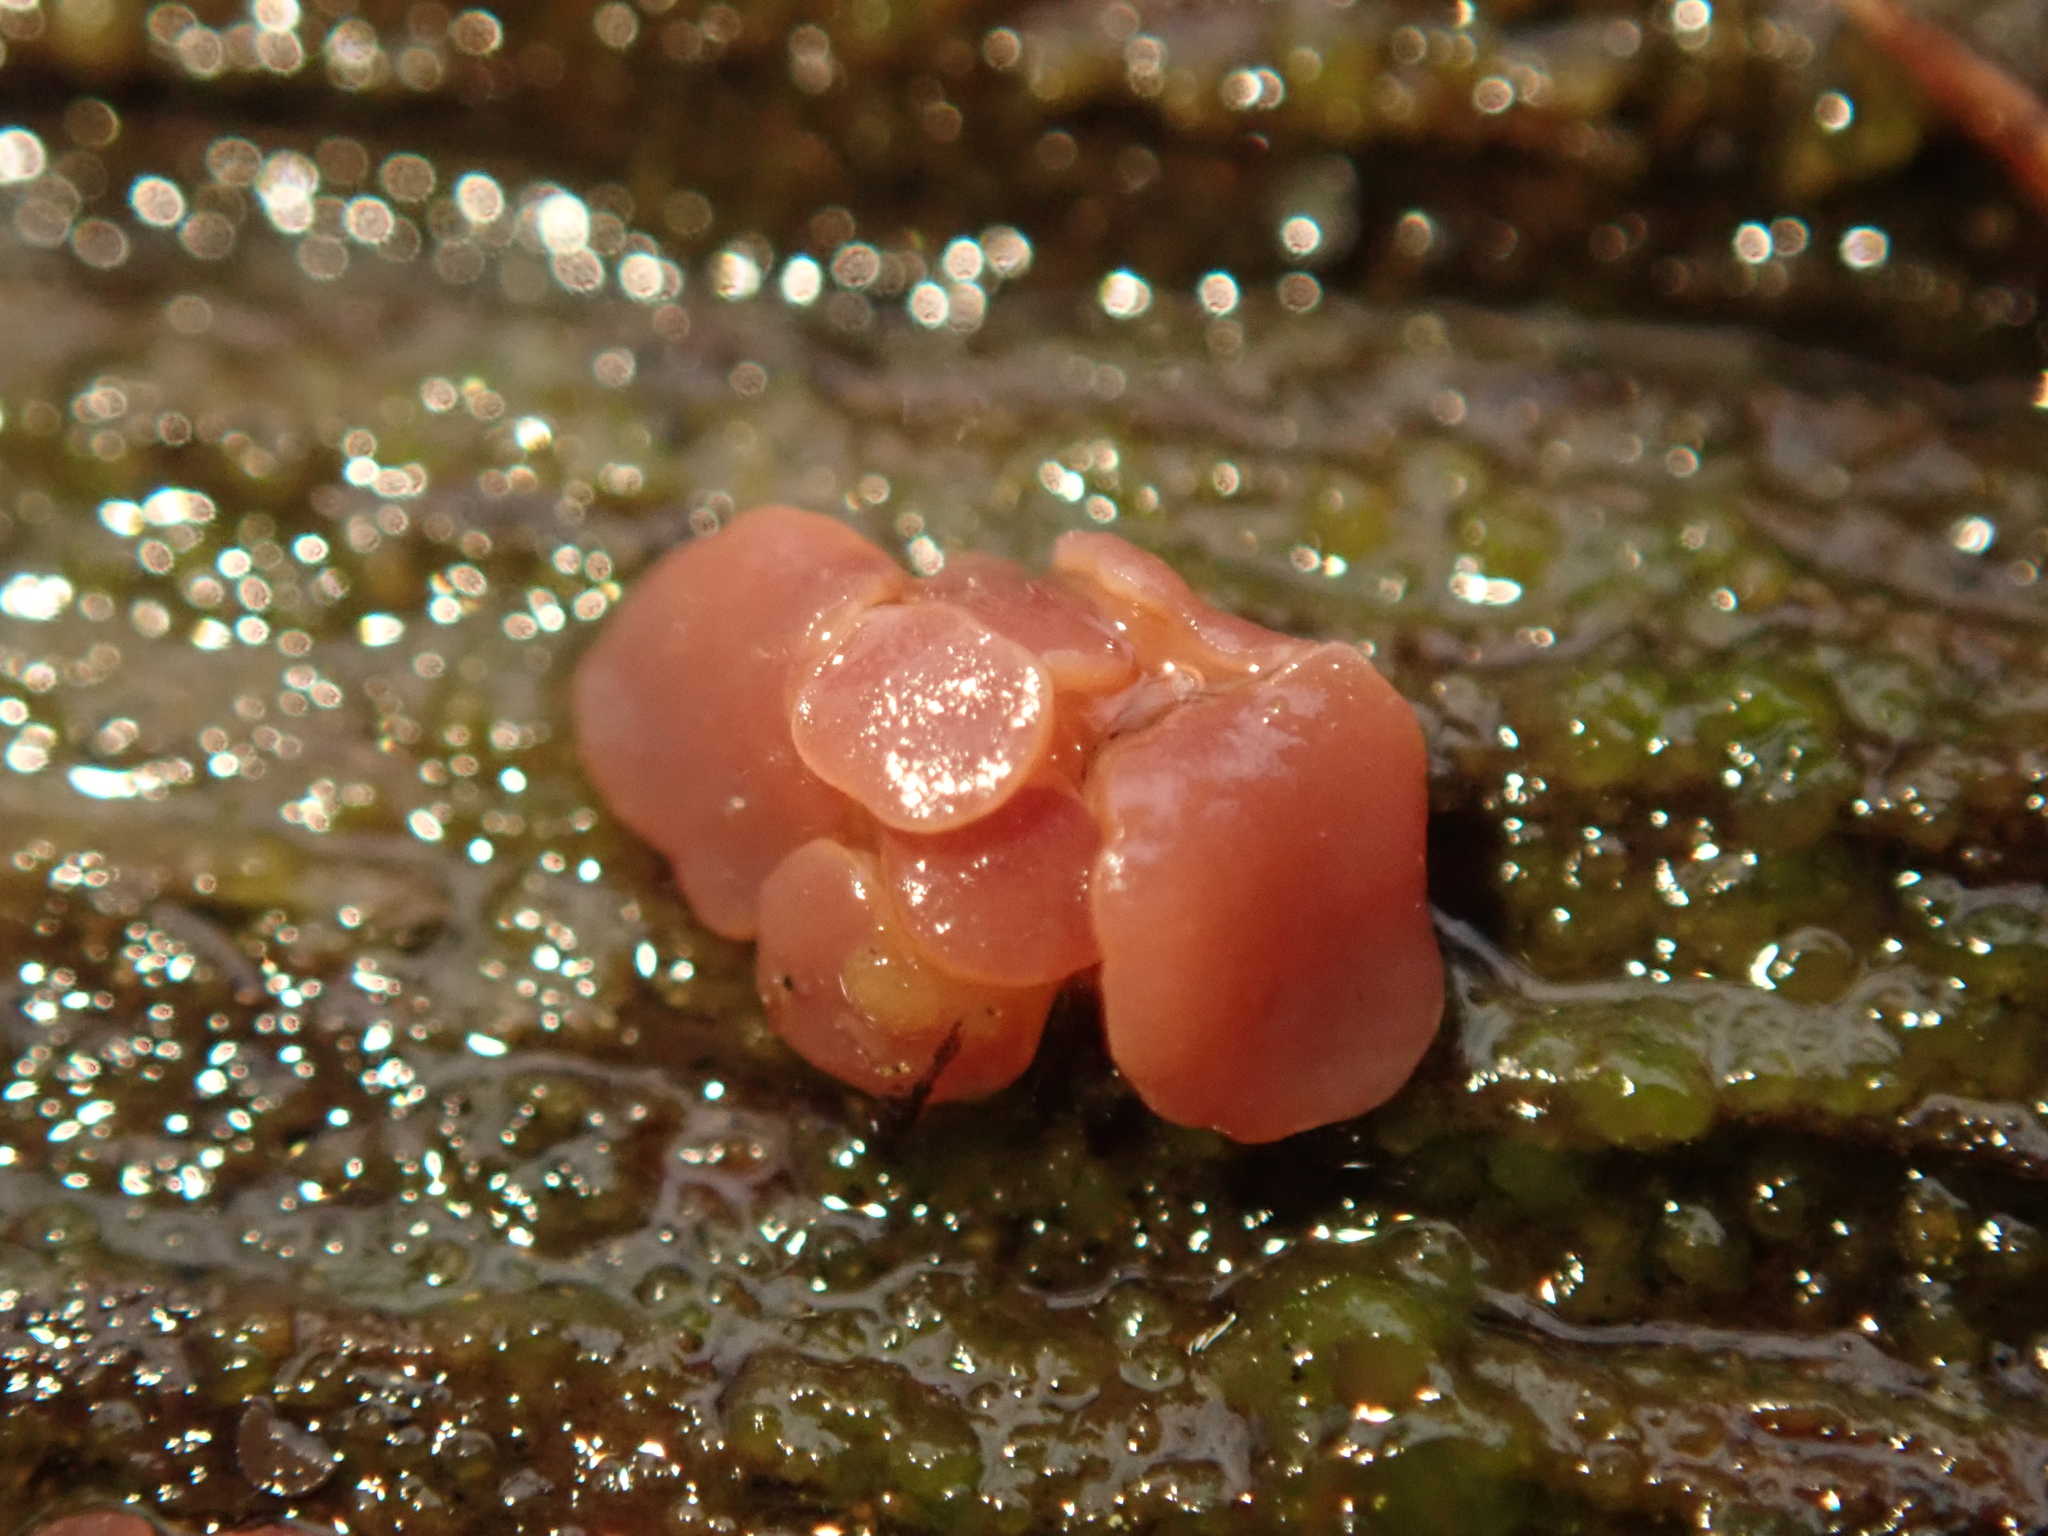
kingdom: Fungi
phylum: Ascomycota
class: Leotiomycetes
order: Helotiales
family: Gelatinodiscaceae
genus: Ascocoryne
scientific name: Ascocoryne sarcoides
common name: Purple jellydisc
